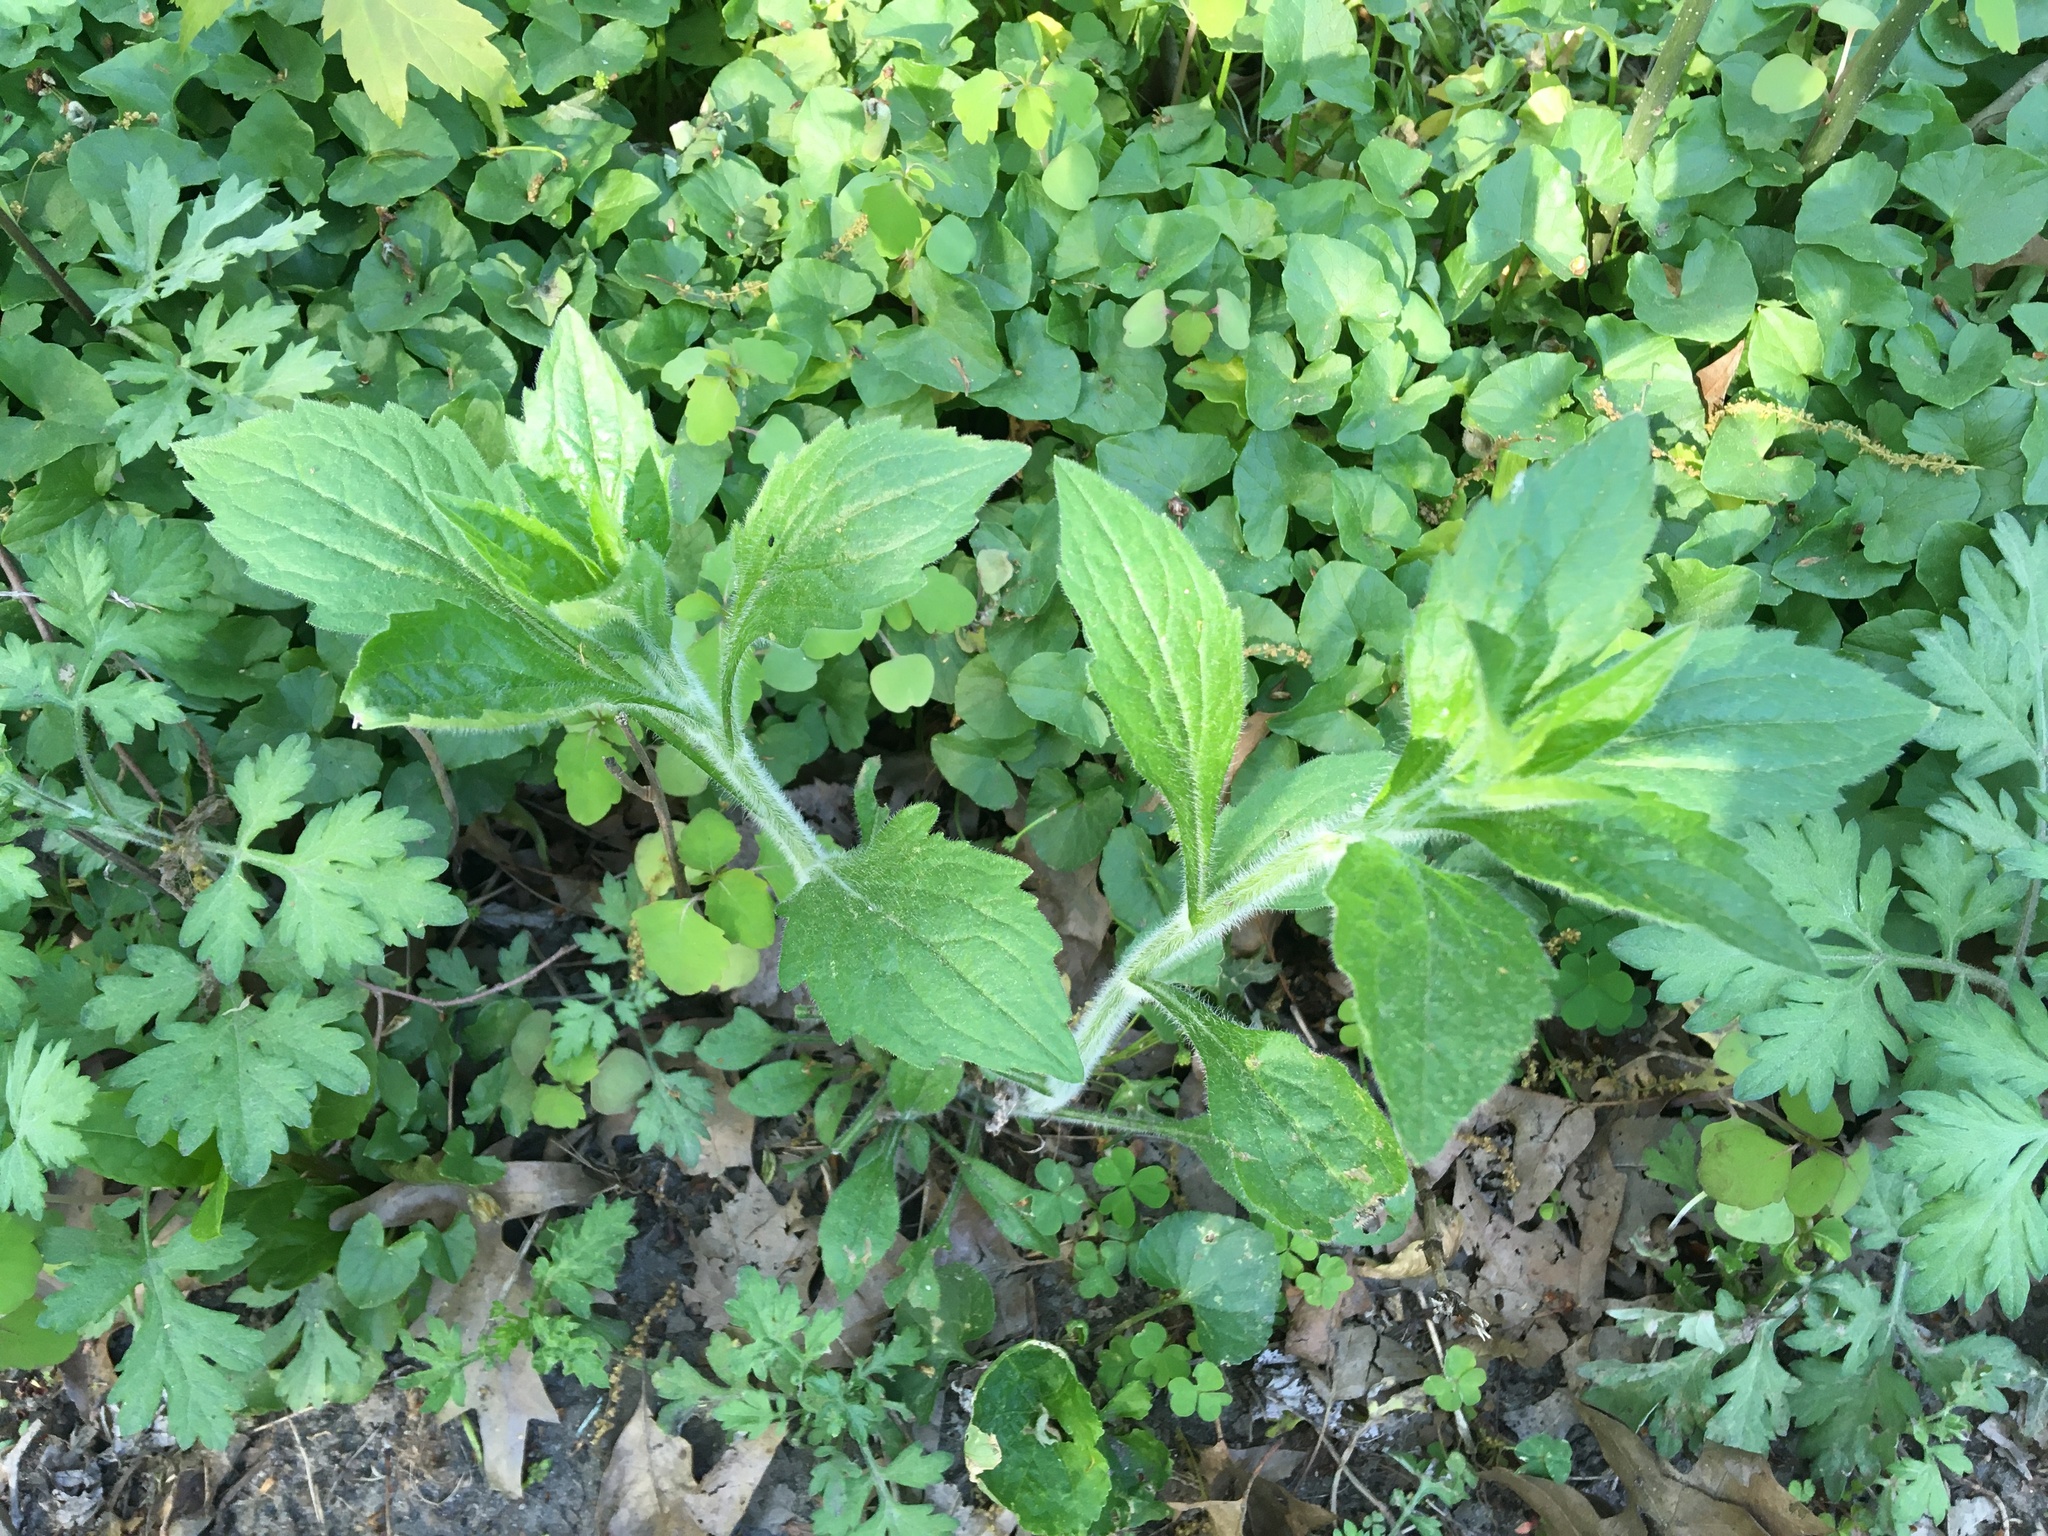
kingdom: Plantae
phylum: Tracheophyta
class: Magnoliopsida
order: Asterales
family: Asteraceae
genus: Erigeron
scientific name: Erigeron annuus
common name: Tall fleabane
